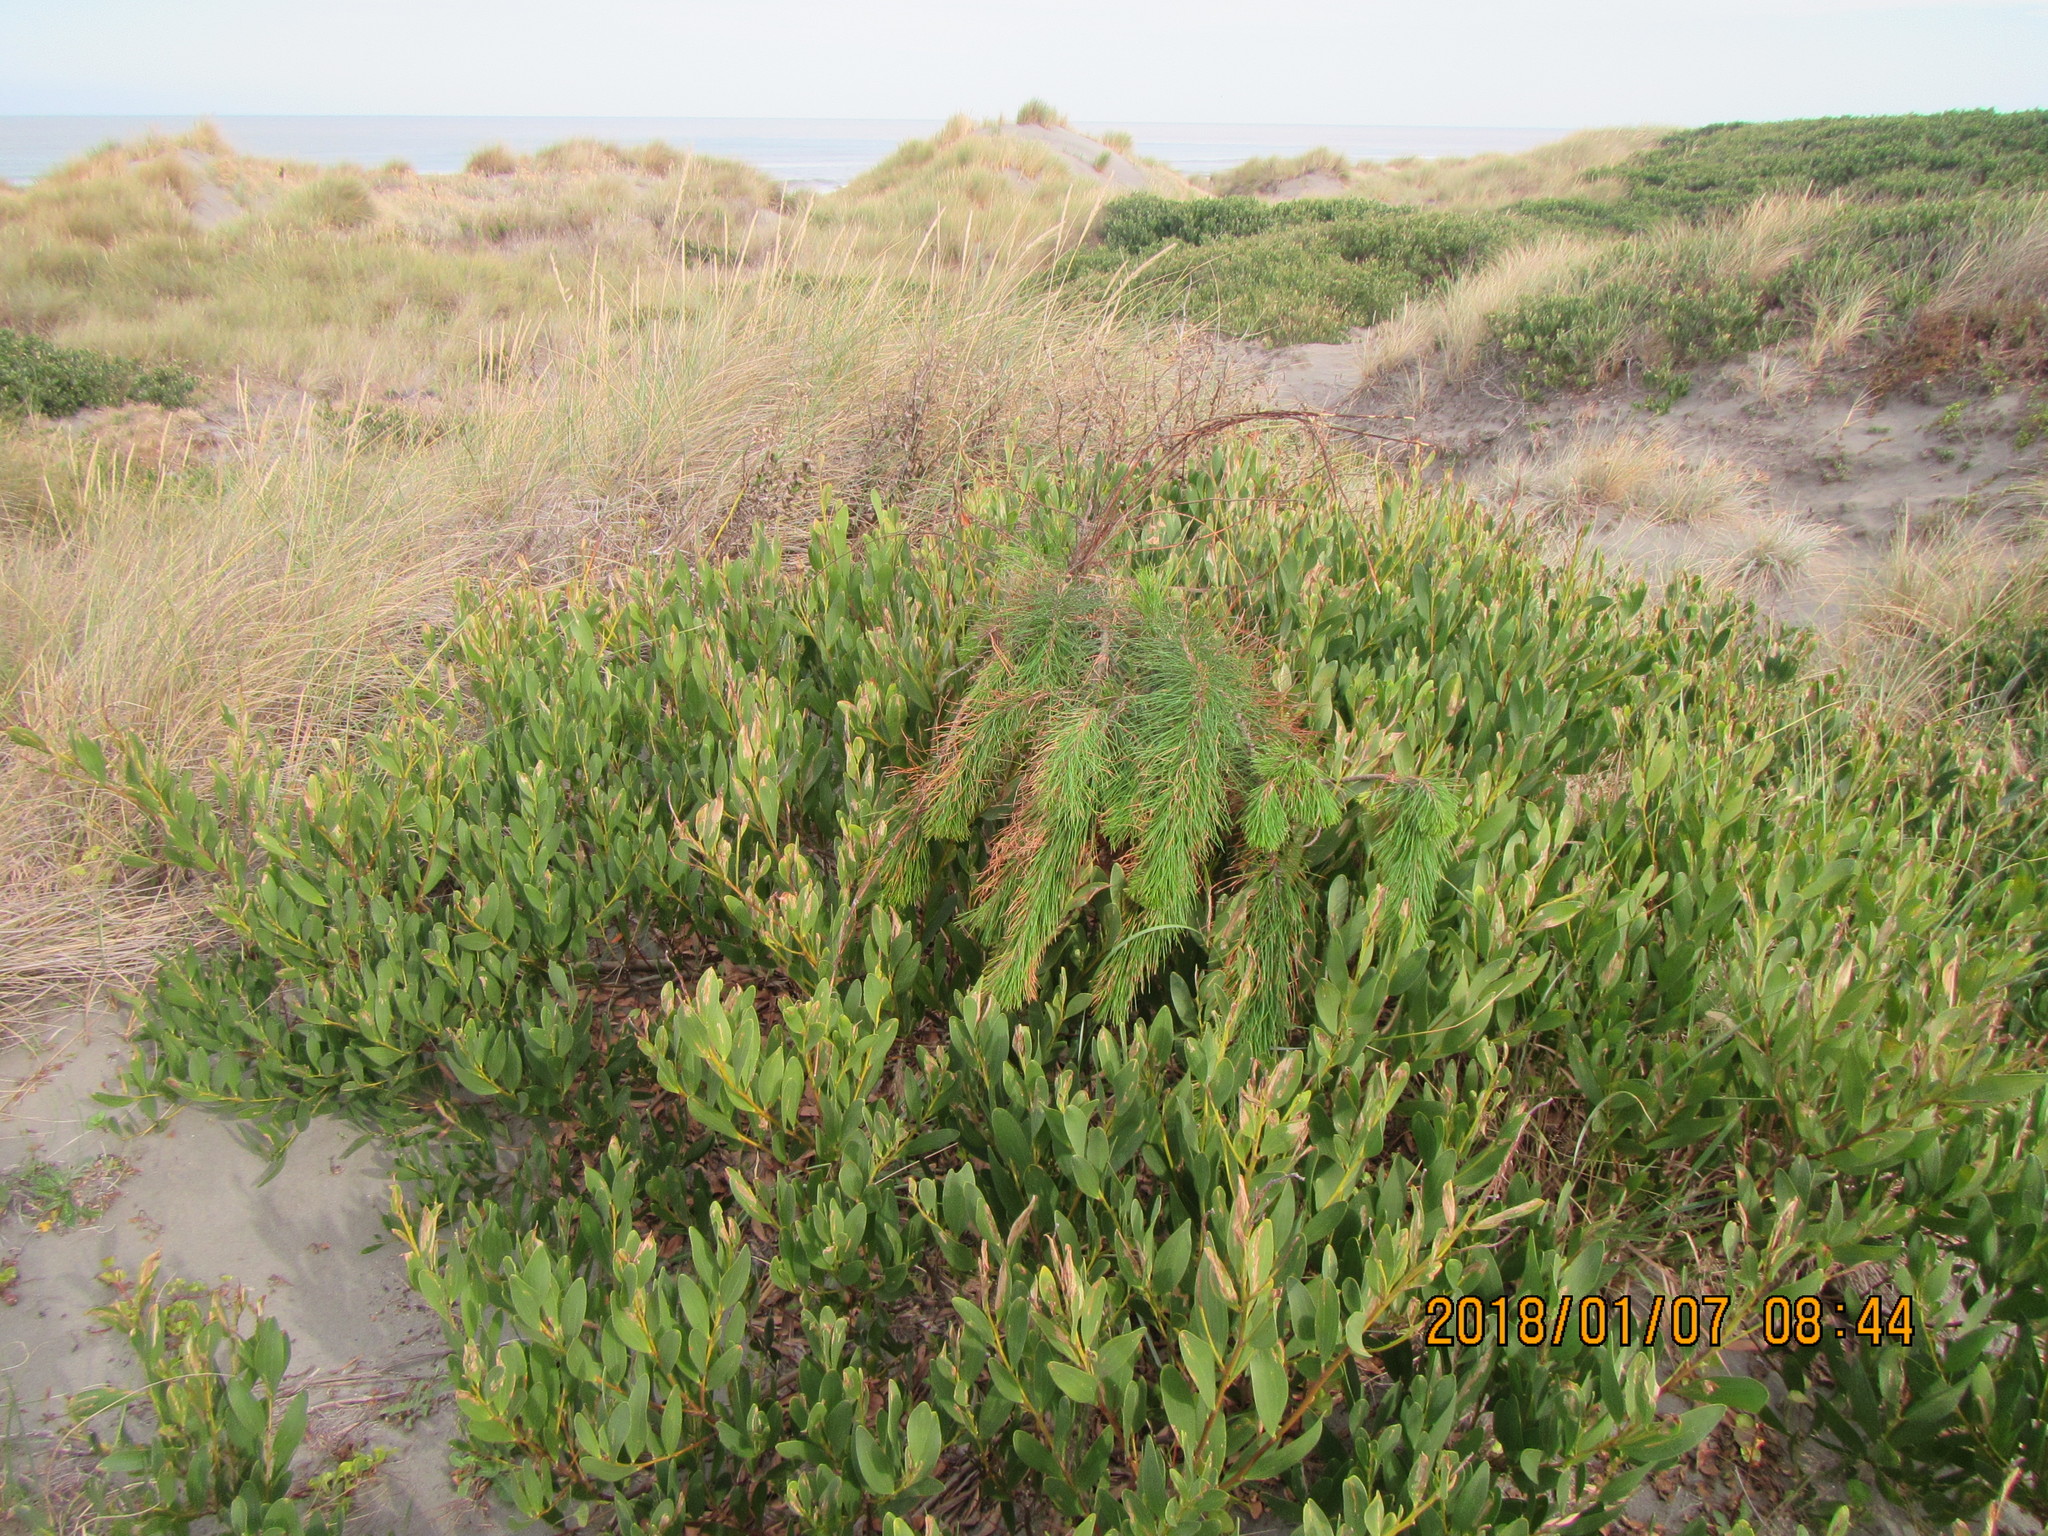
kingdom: Plantae
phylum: Tracheophyta
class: Pinopsida
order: Pinales
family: Pinaceae
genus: Pinus
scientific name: Pinus radiata
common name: Monterey pine
